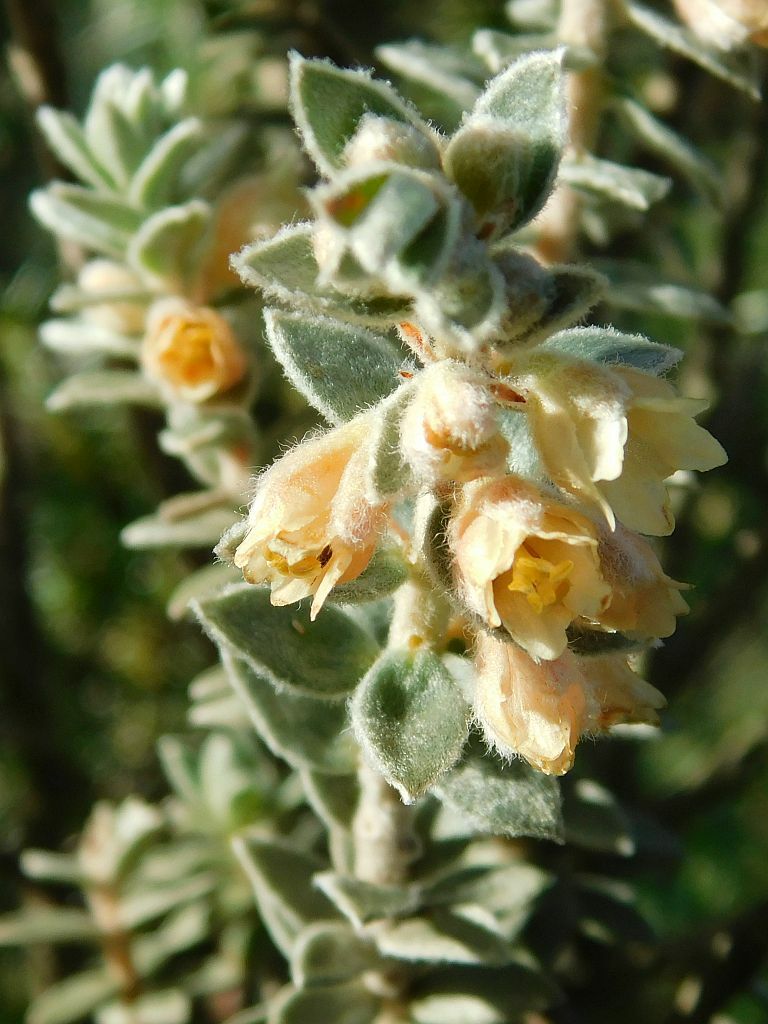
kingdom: Plantae
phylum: Tracheophyta
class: Magnoliopsida
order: Malpighiales
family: Peraceae
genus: Clutia
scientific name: Clutia tomentosa
